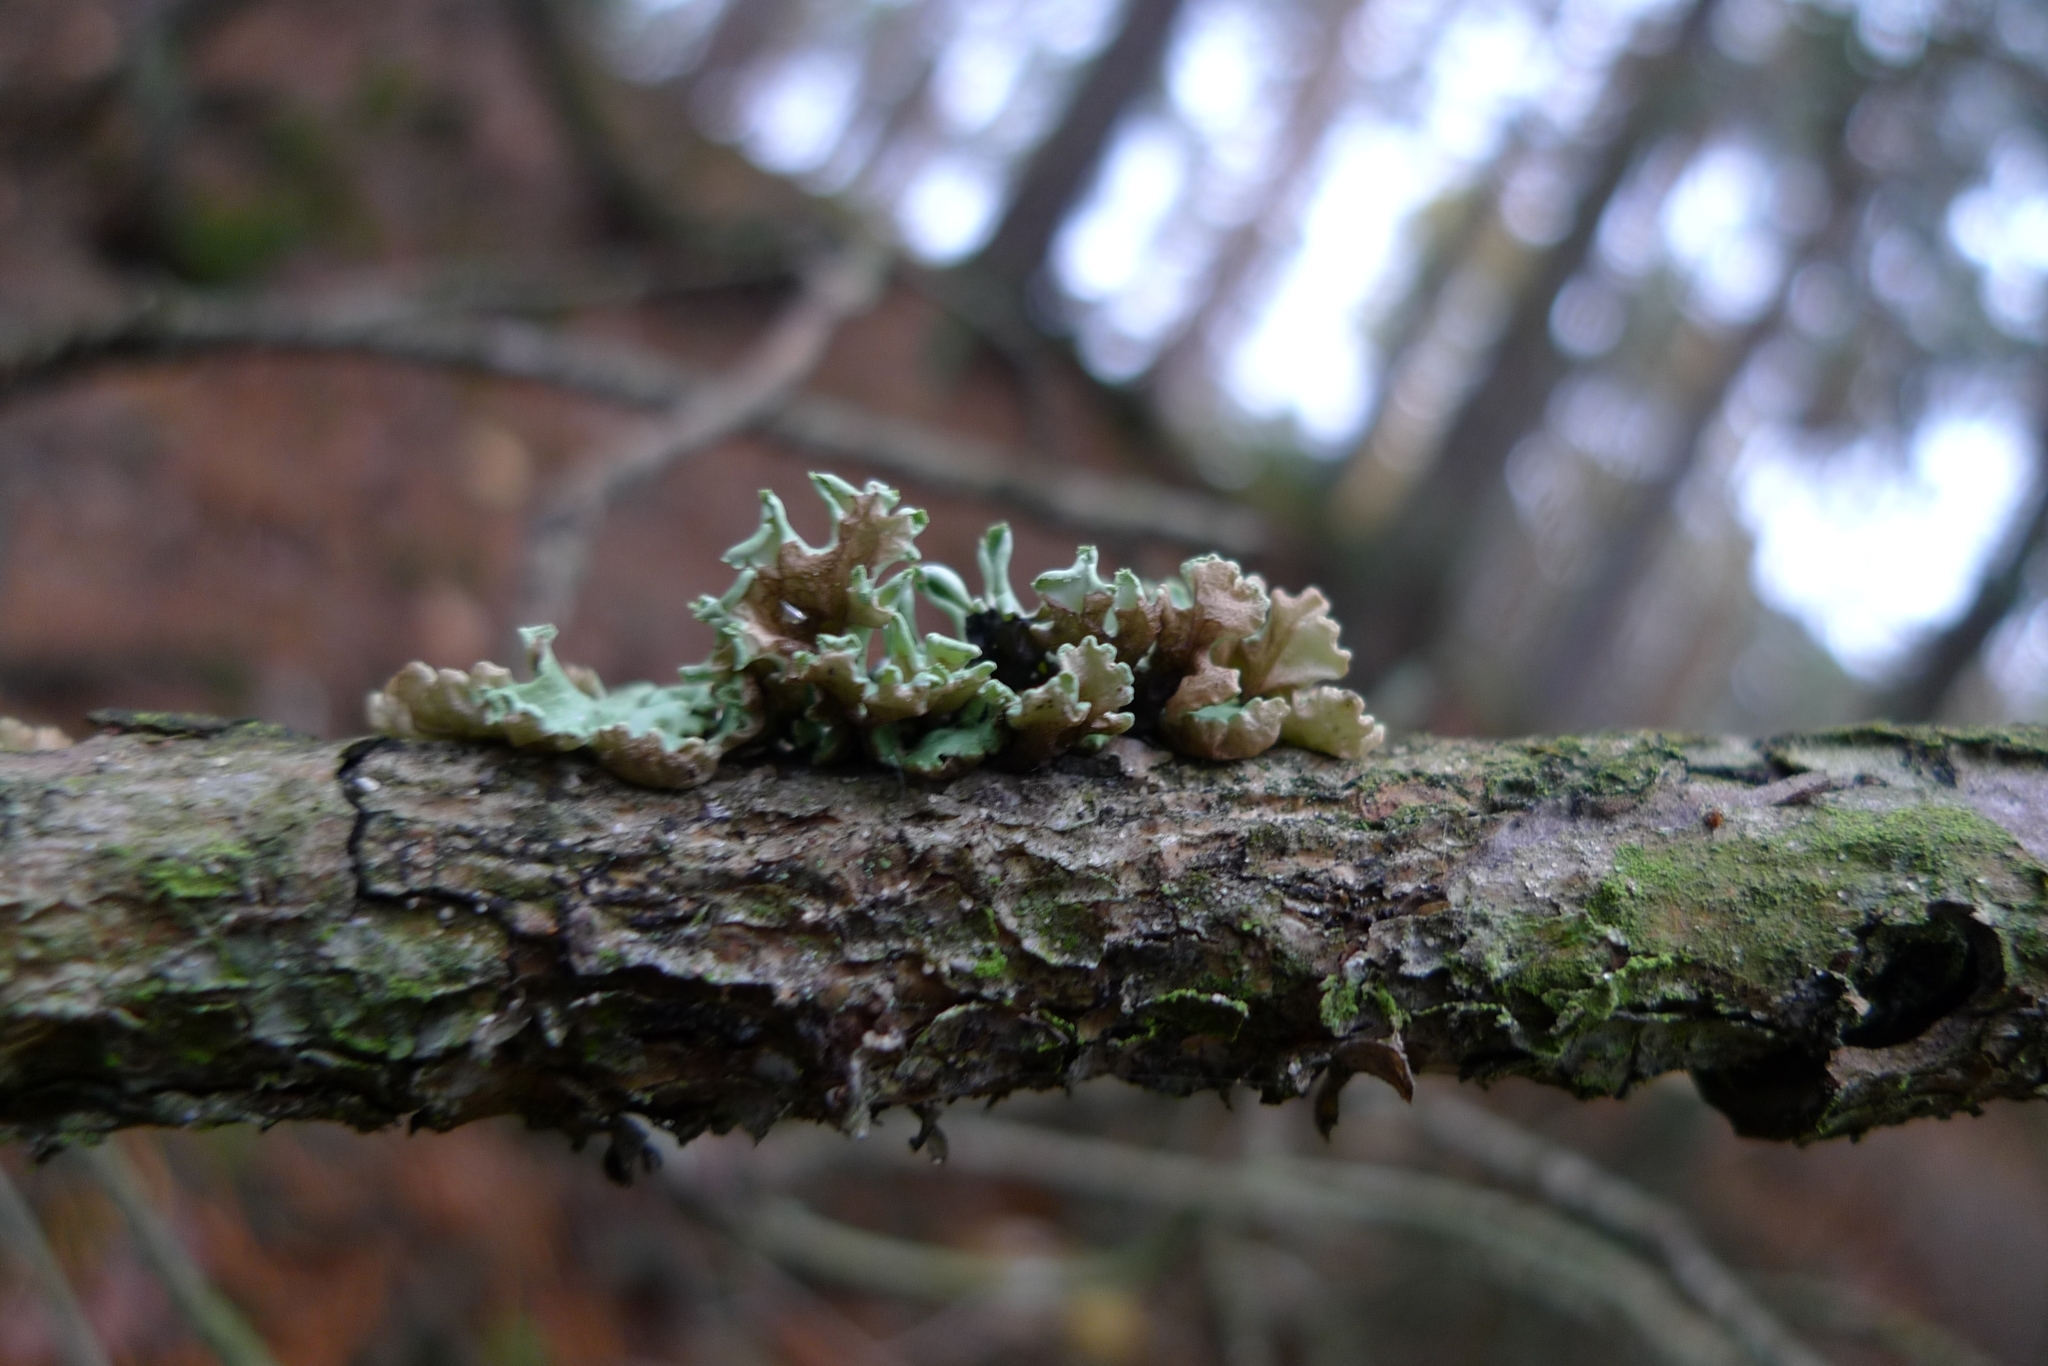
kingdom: Fungi
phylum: Ascomycota
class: Lecanoromycetes
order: Lecanorales
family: Parmeliaceae
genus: Hypogymnia
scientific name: Hypogymnia physodes
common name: Dark crottle
